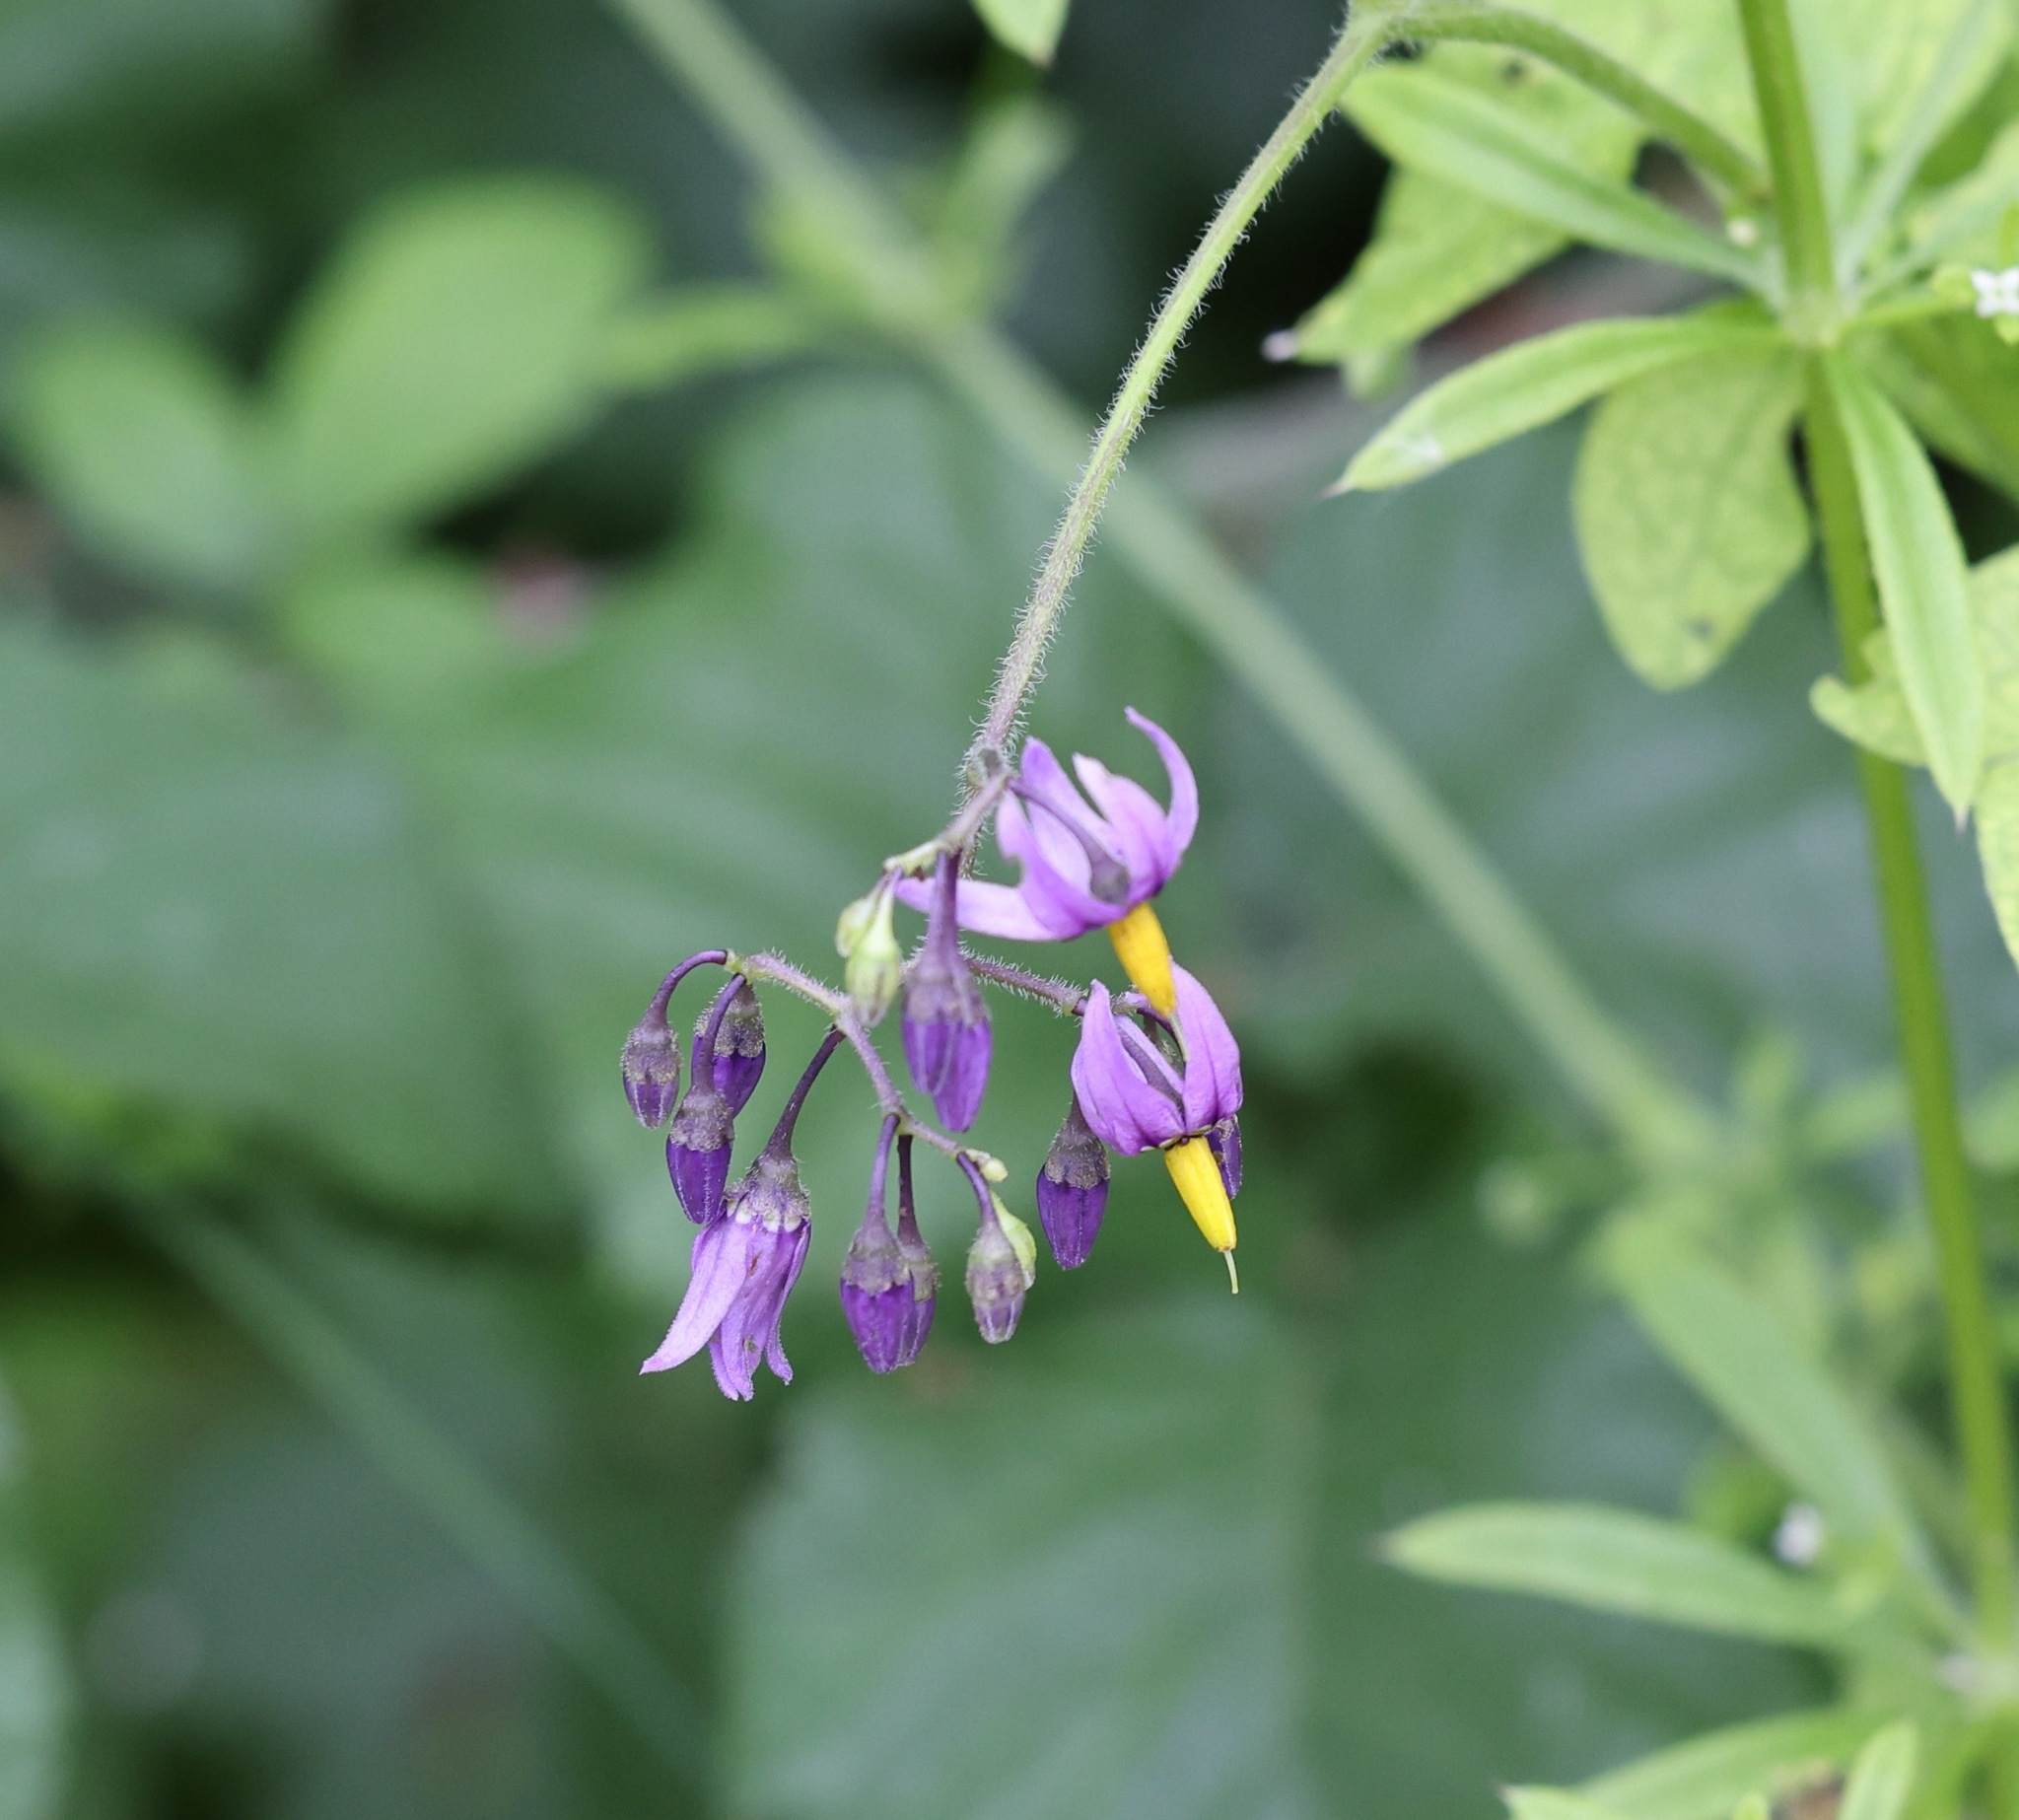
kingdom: Plantae
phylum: Tracheophyta
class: Magnoliopsida
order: Solanales
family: Solanaceae
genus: Solanum
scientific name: Solanum dulcamara
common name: Climbing nightshade
